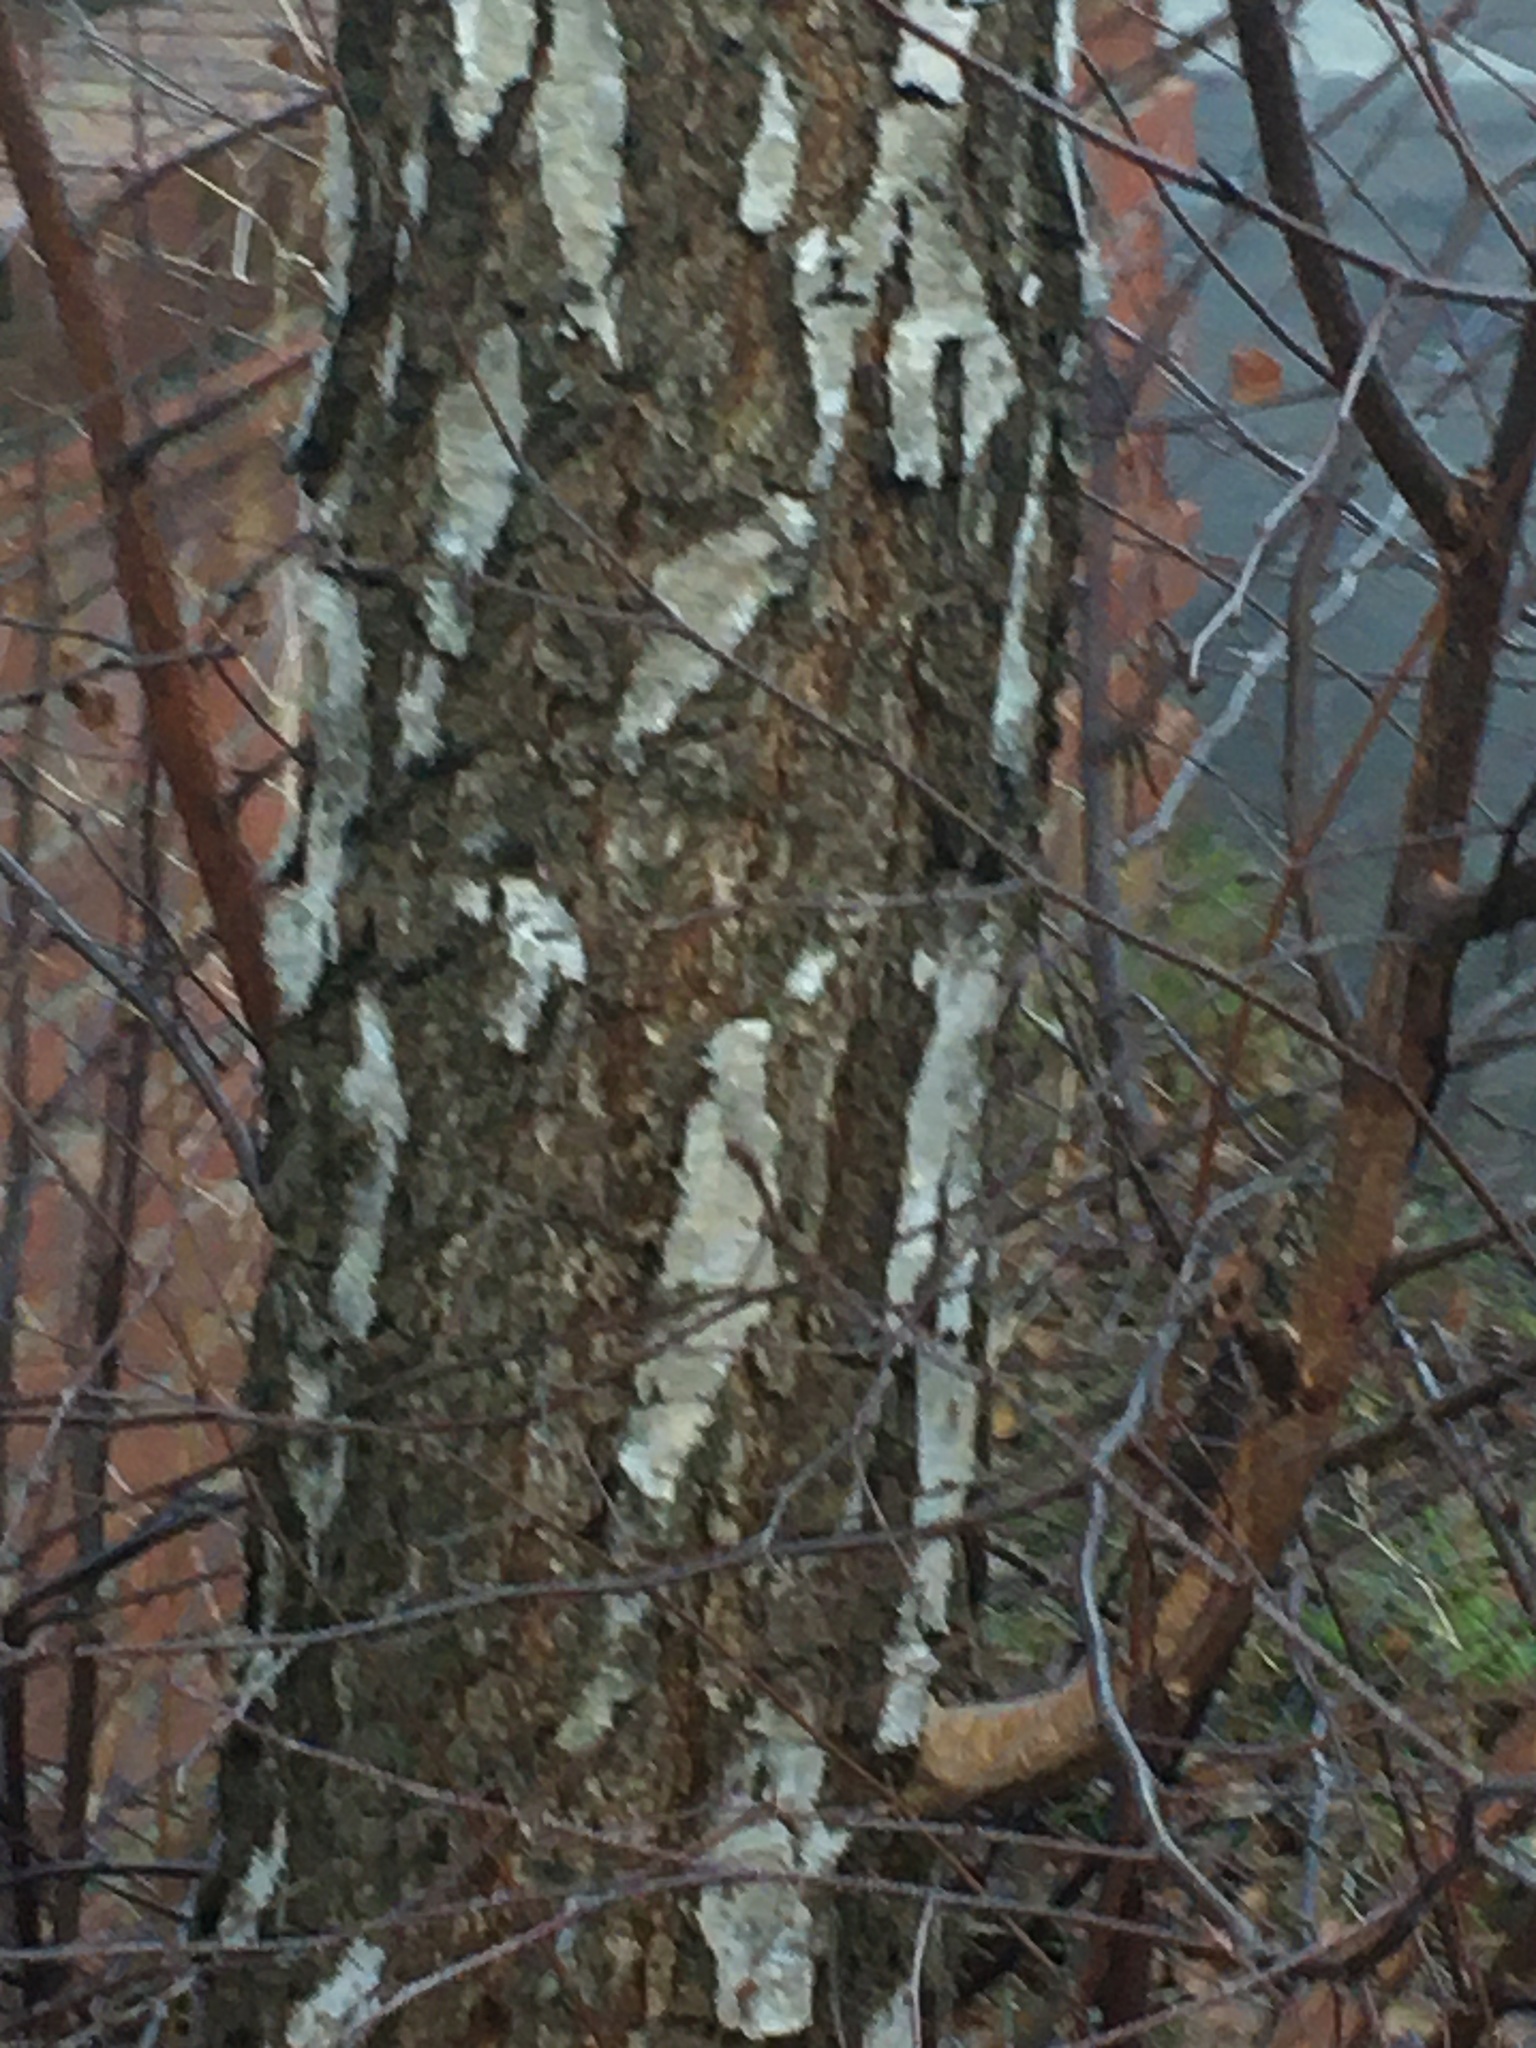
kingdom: Plantae
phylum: Tracheophyta
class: Magnoliopsida
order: Fagales
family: Betulaceae
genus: Betula
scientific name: Betula pendula
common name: Silver birch
